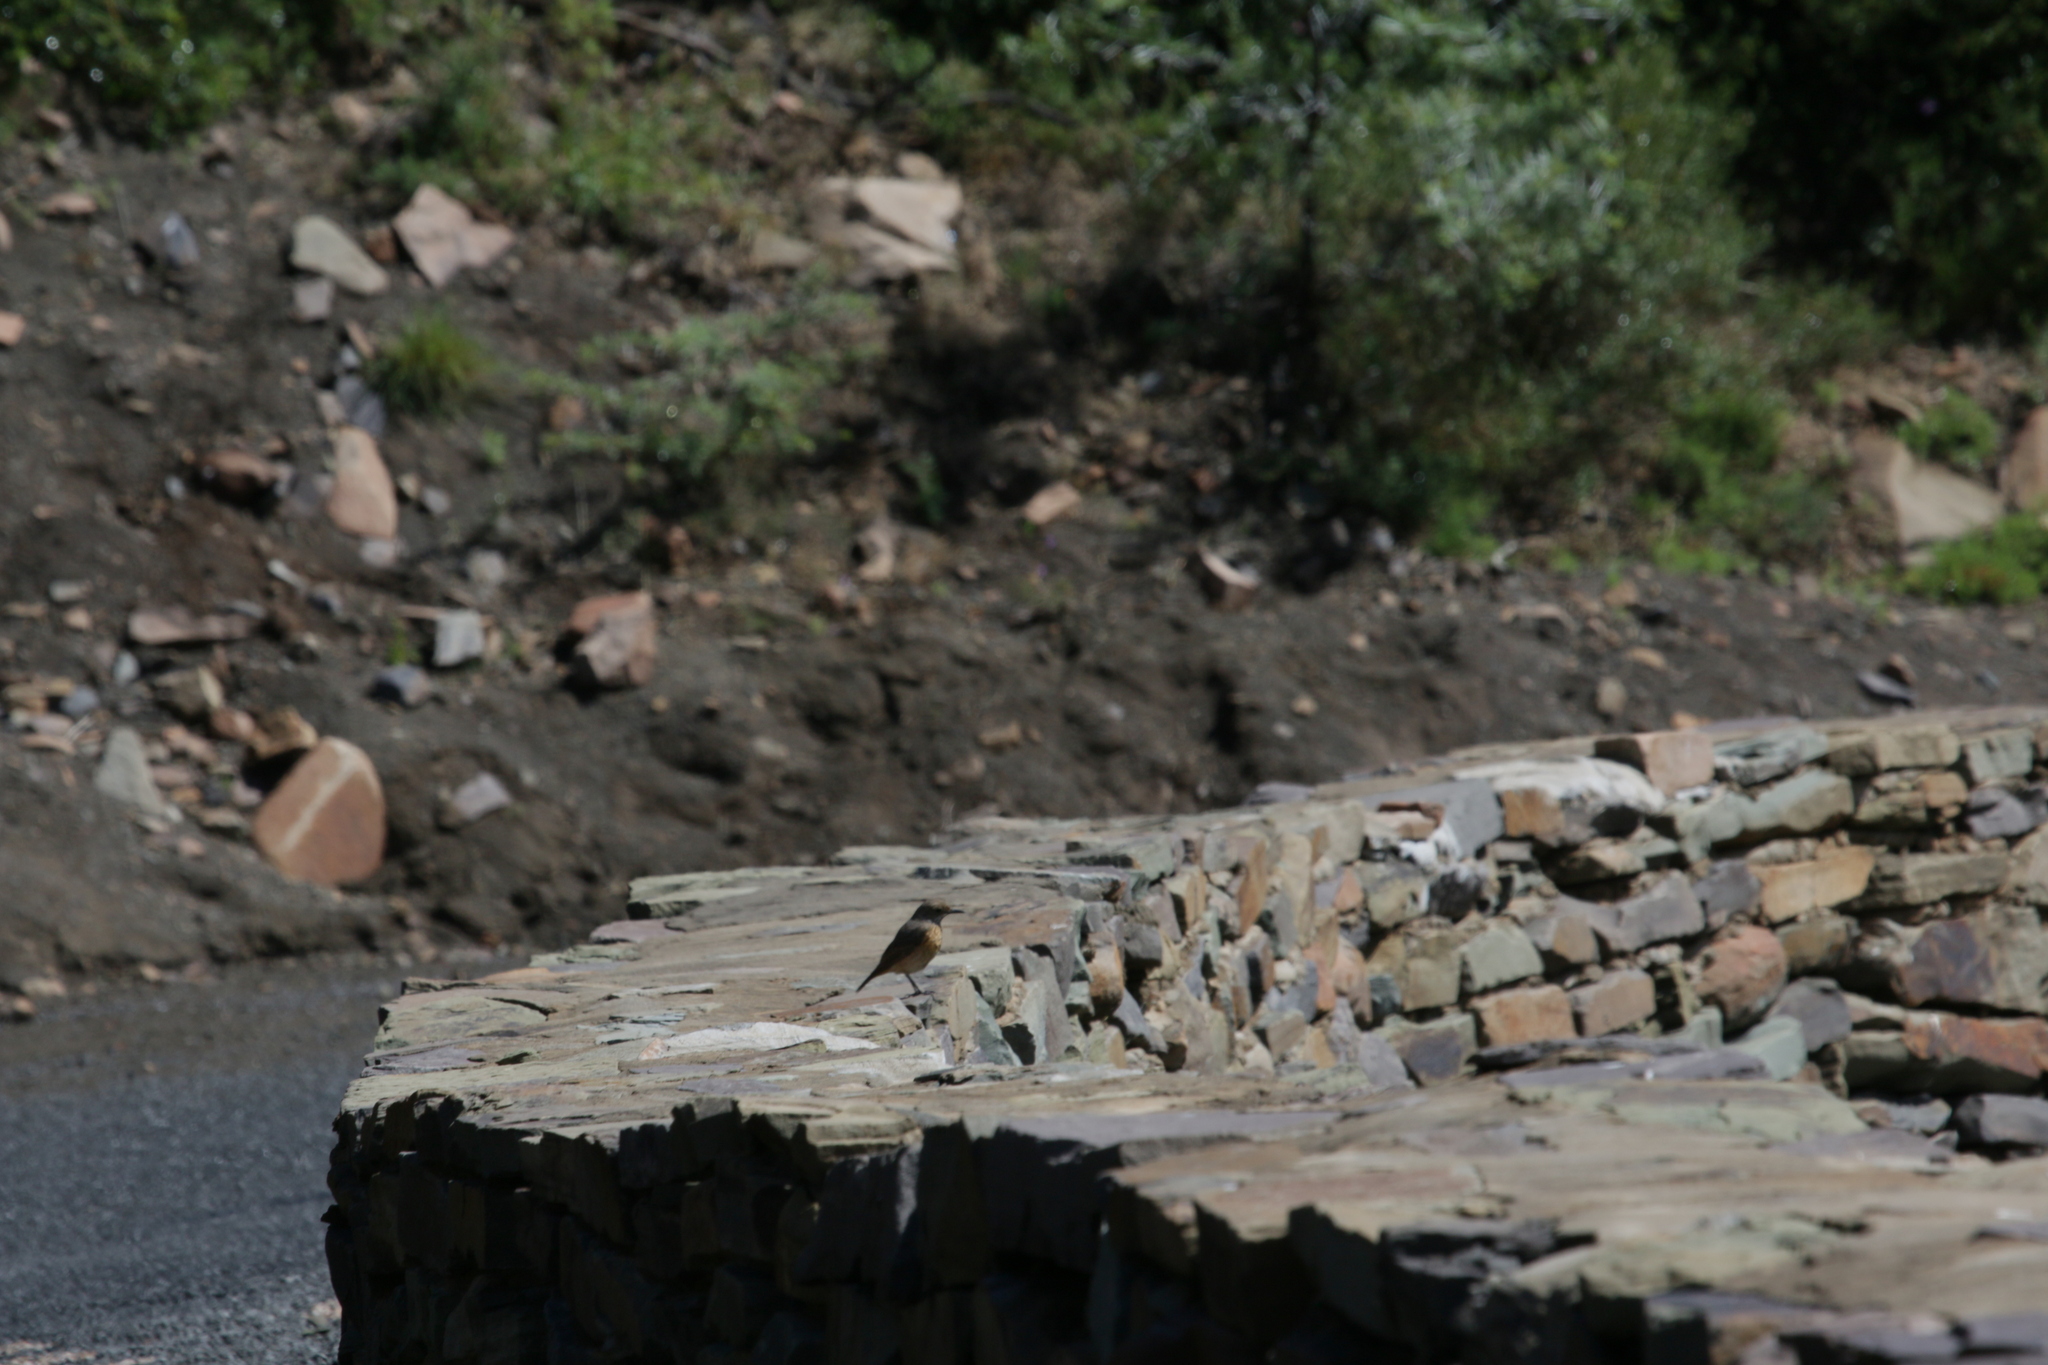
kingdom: Animalia
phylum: Chordata
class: Aves
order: Passeriformes
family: Muscicapidae
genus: Monticola
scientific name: Monticola rupestris
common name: Cape rock thrush
